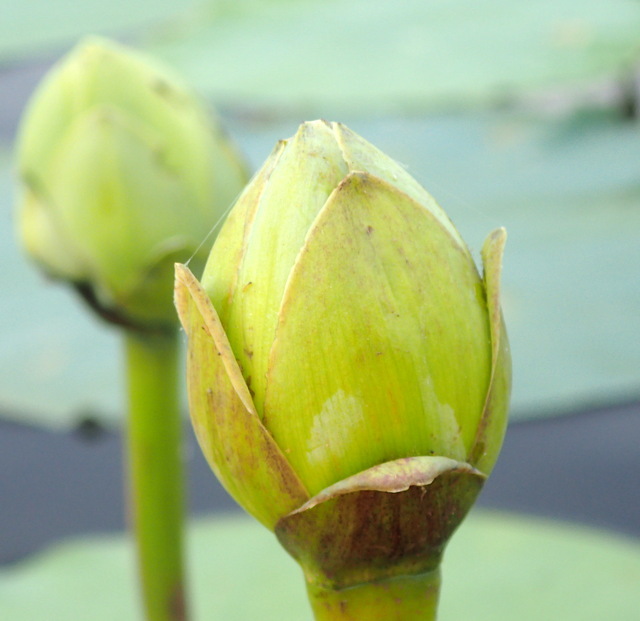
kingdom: Plantae
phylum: Tracheophyta
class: Magnoliopsida
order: Proteales
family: Nelumbonaceae
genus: Nelumbo
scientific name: Nelumbo lutea
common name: American lotus
